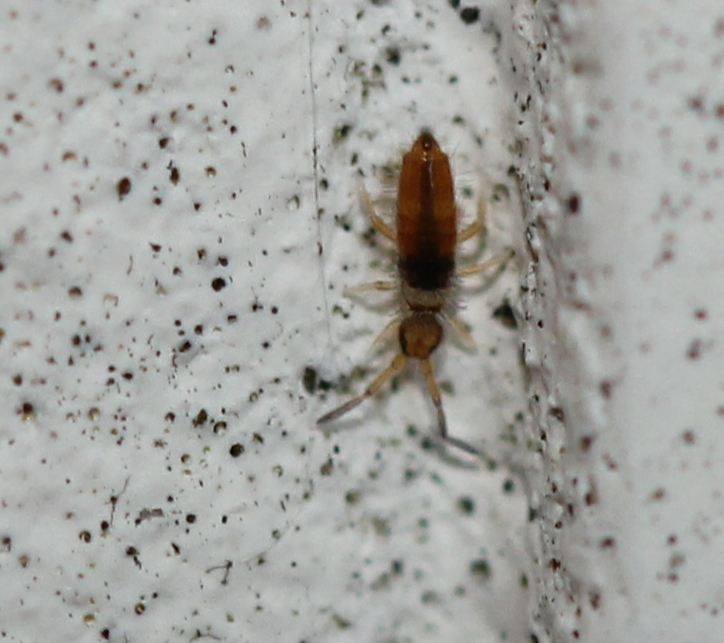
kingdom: Animalia
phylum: Arthropoda
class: Collembola
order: Entomobryomorpha
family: Entomobryidae
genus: Entomobrya
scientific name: Entomobrya atrocincta
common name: Springtail
